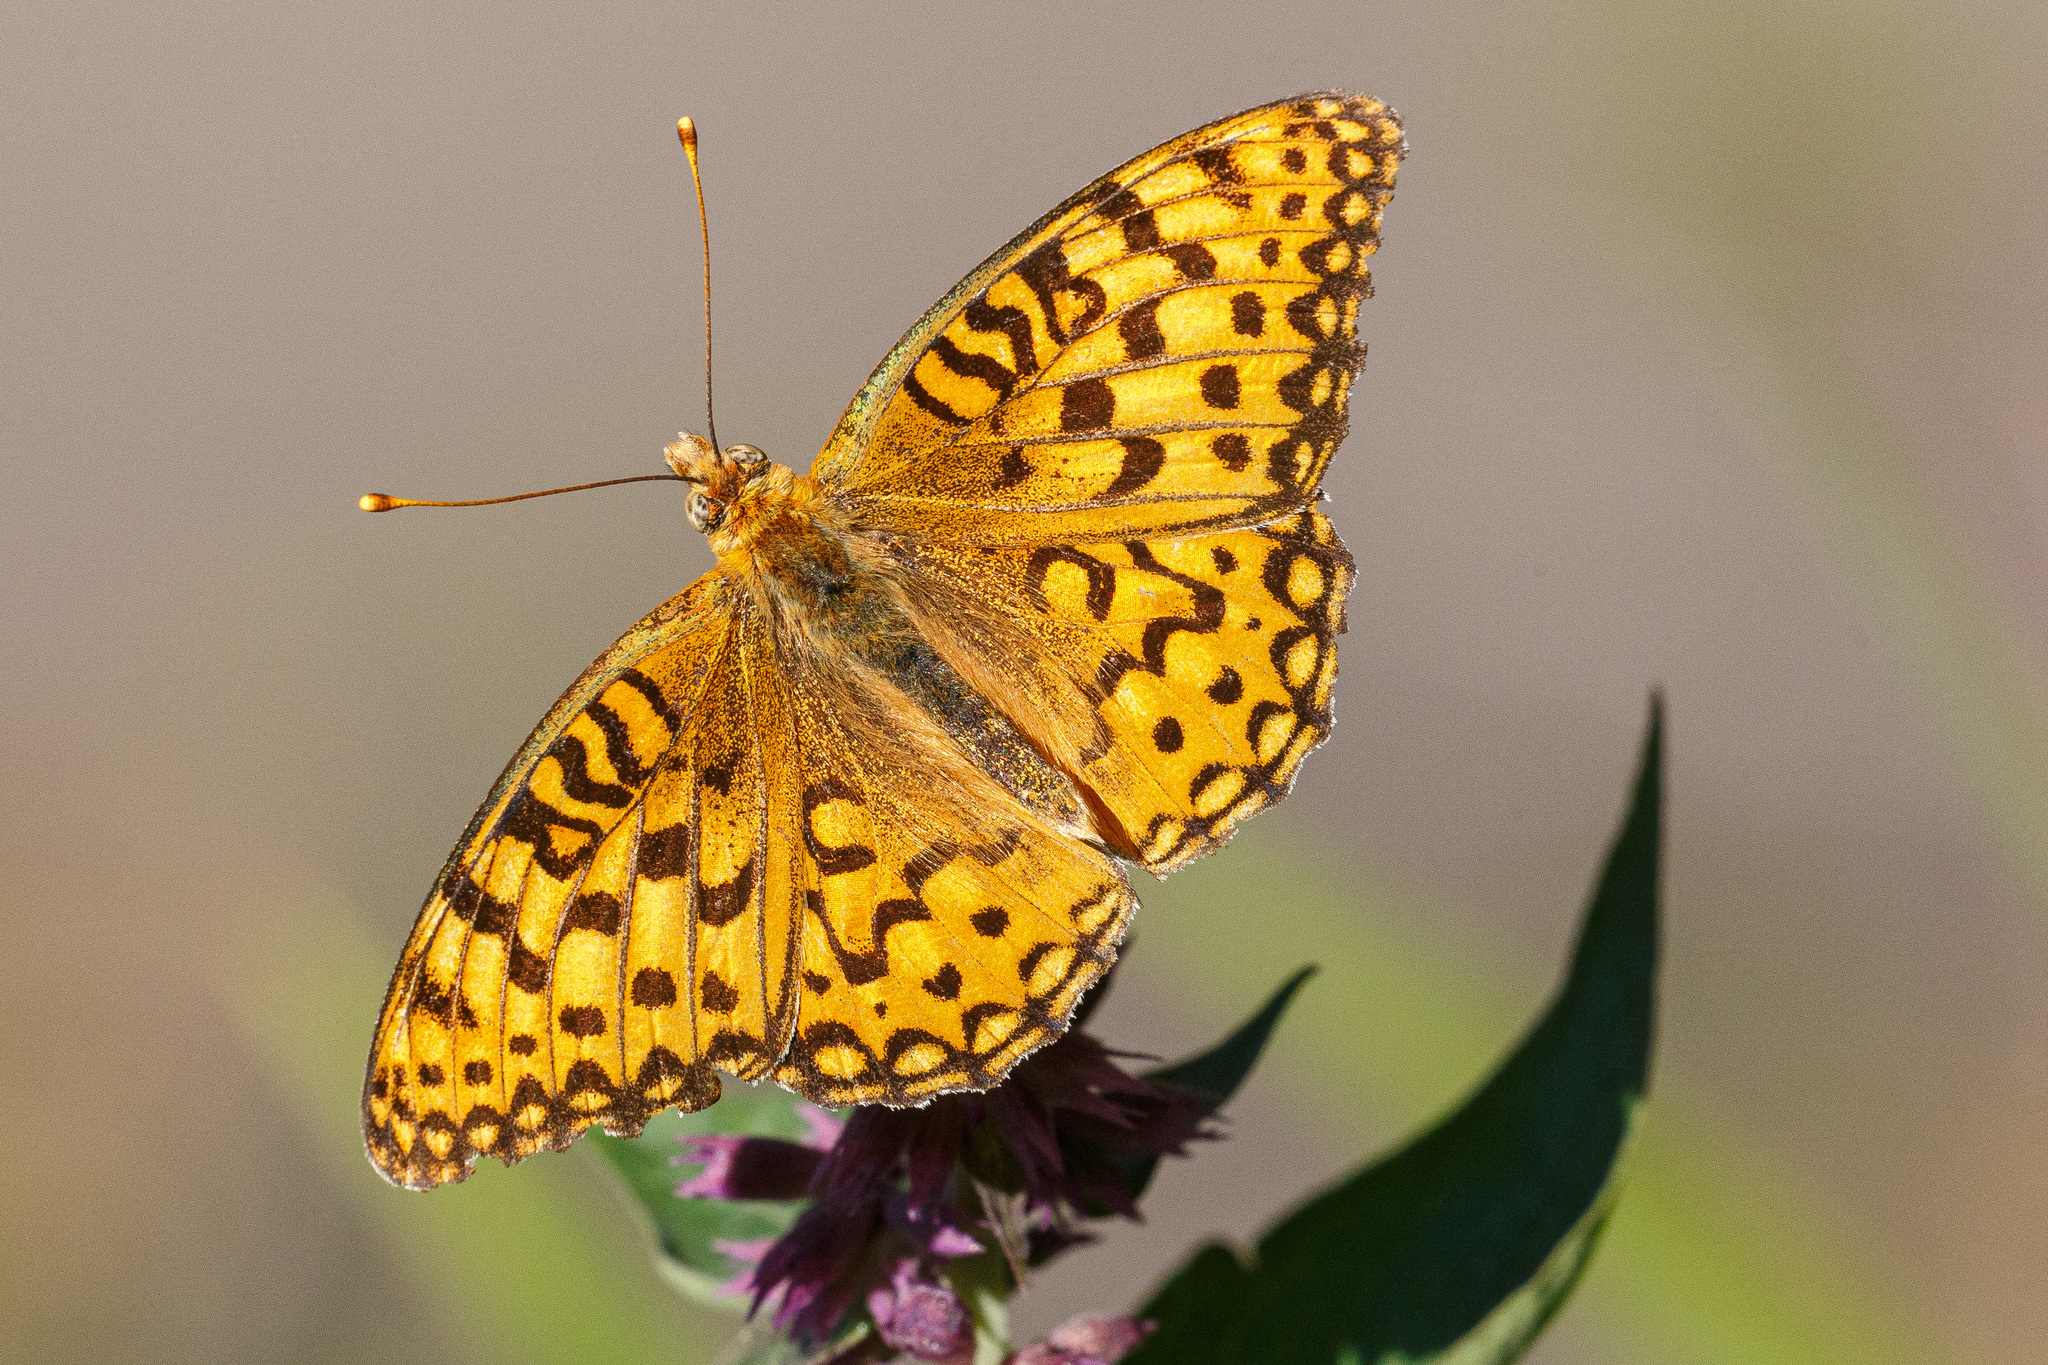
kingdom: Animalia
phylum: Arthropoda
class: Insecta
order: Lepidoptera
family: Nymphalidae
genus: Argynnis
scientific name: Argynnis coronis
